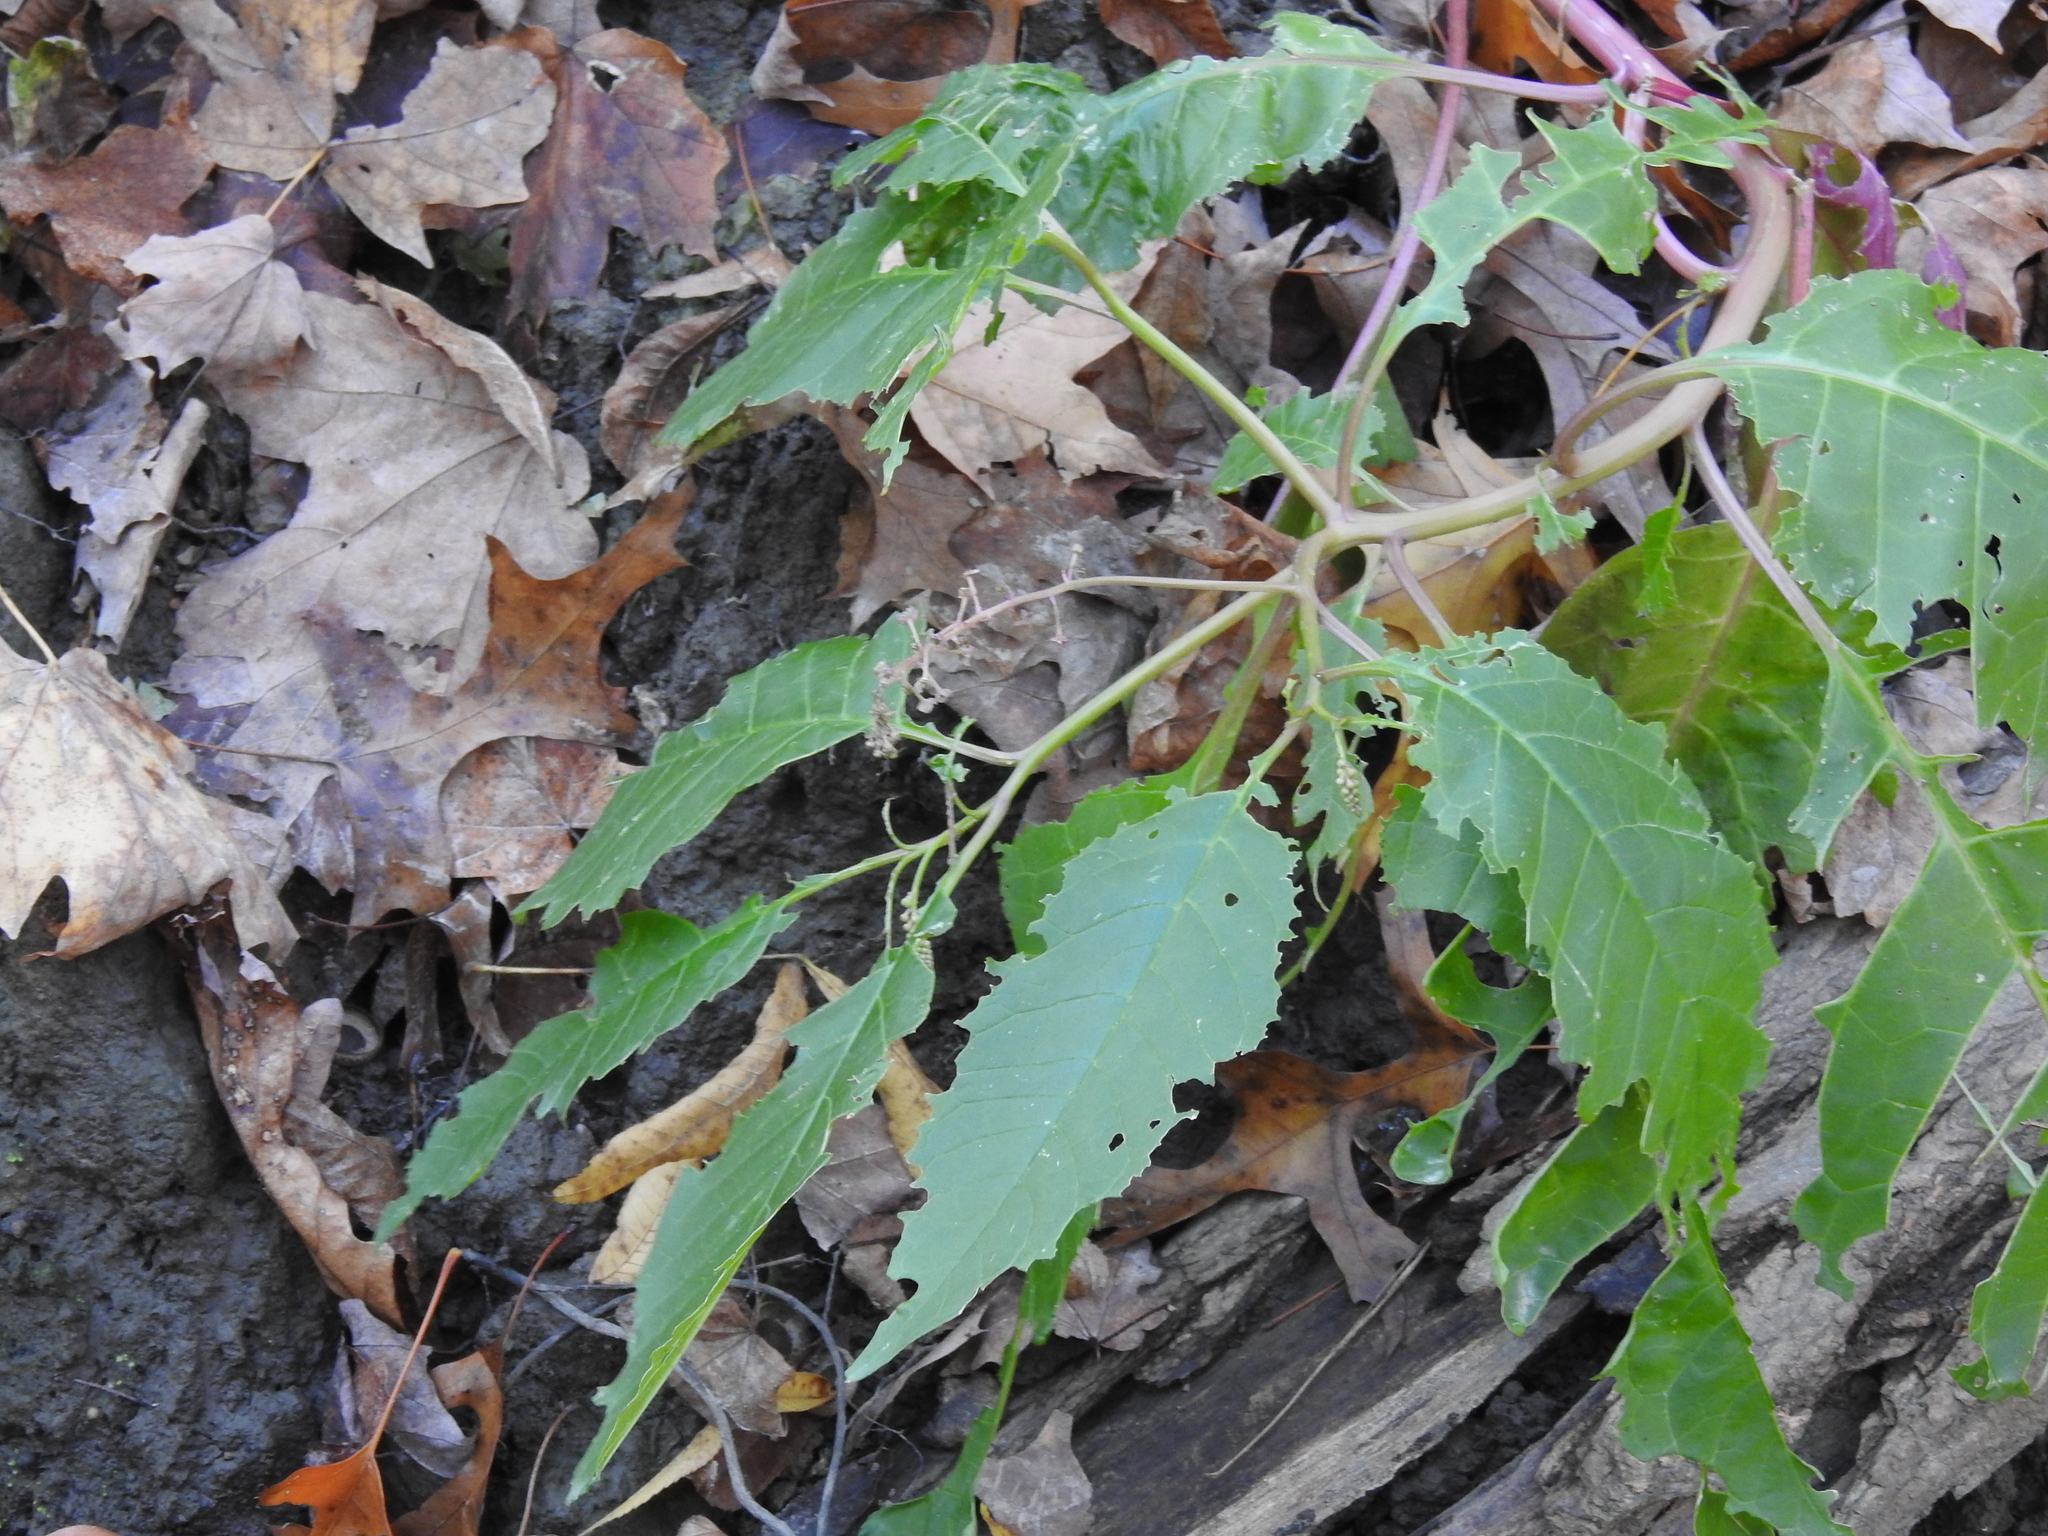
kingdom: Plantae
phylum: Tracheophyta
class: Magnoliopsida
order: Caryophyllales
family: Phytolaccaceae
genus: Phytolacca
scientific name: Phytolacca americana
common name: American pokeweed
